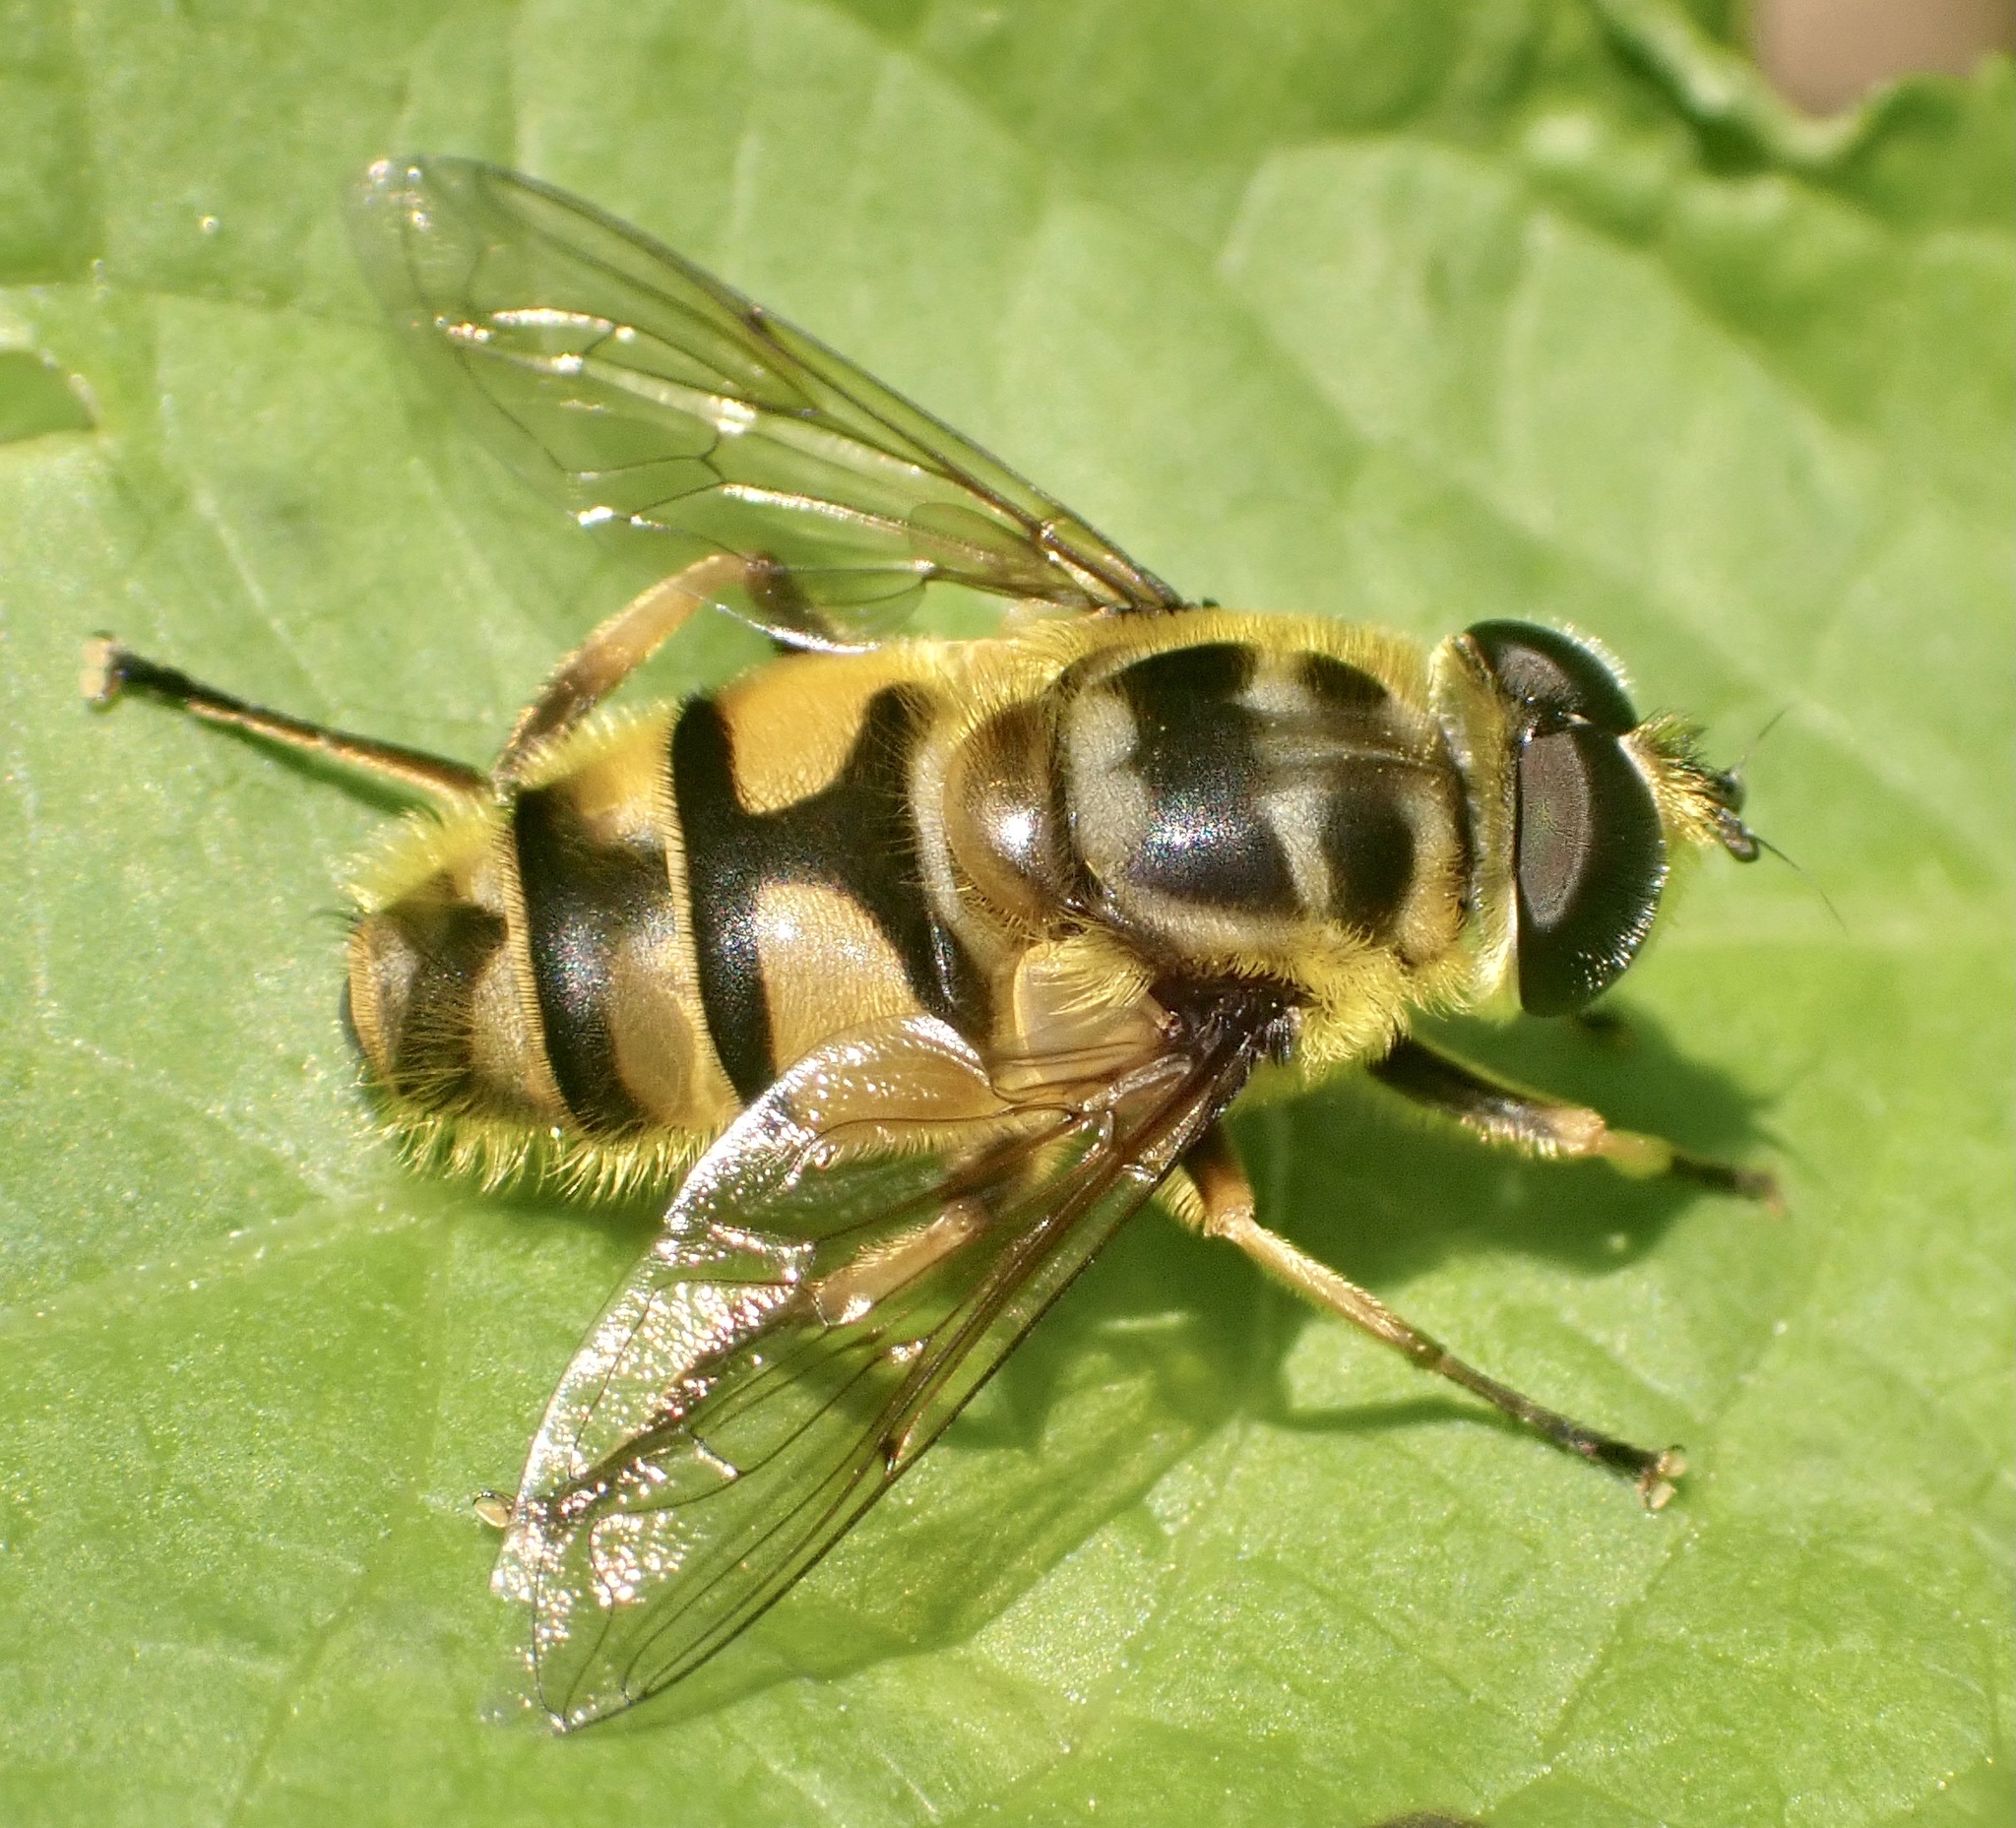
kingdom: Animalia
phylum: Arthropoda
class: Insecta
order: Diptera
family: Syrphidae
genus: Myathropa
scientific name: Myathropa florea
